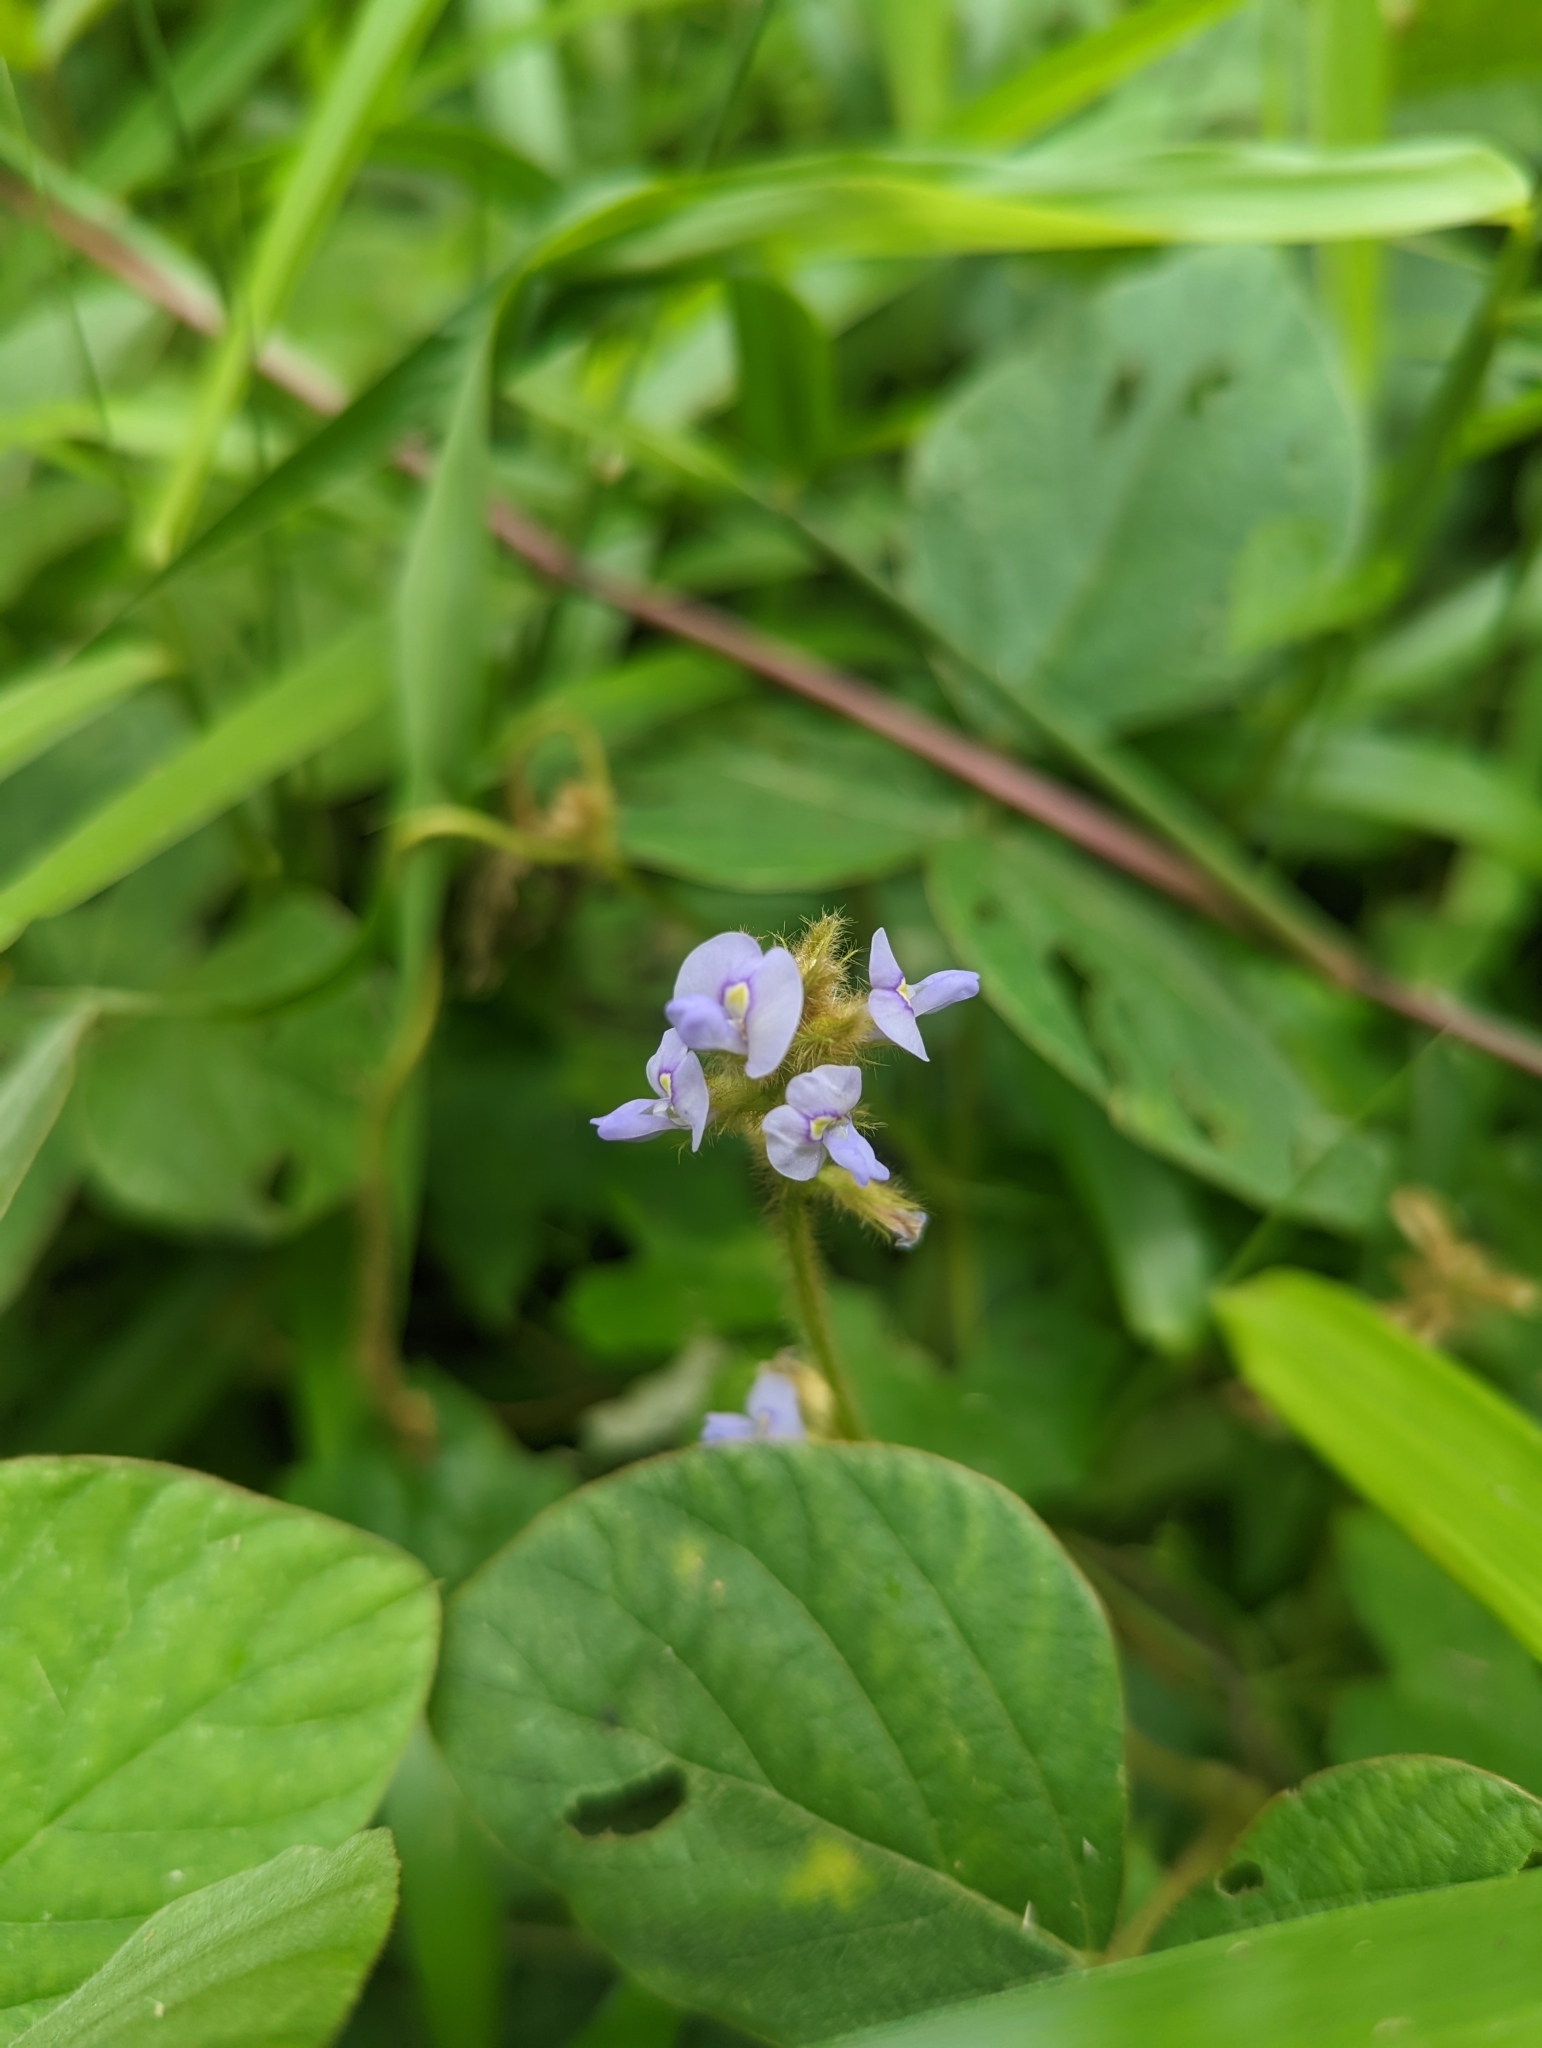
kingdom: Plantae
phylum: Tracheophyta
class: Magnoliopsida
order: Fabales
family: Fabaceae
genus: Calopogonium
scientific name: Calopogonium mucunoides
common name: Calopo
